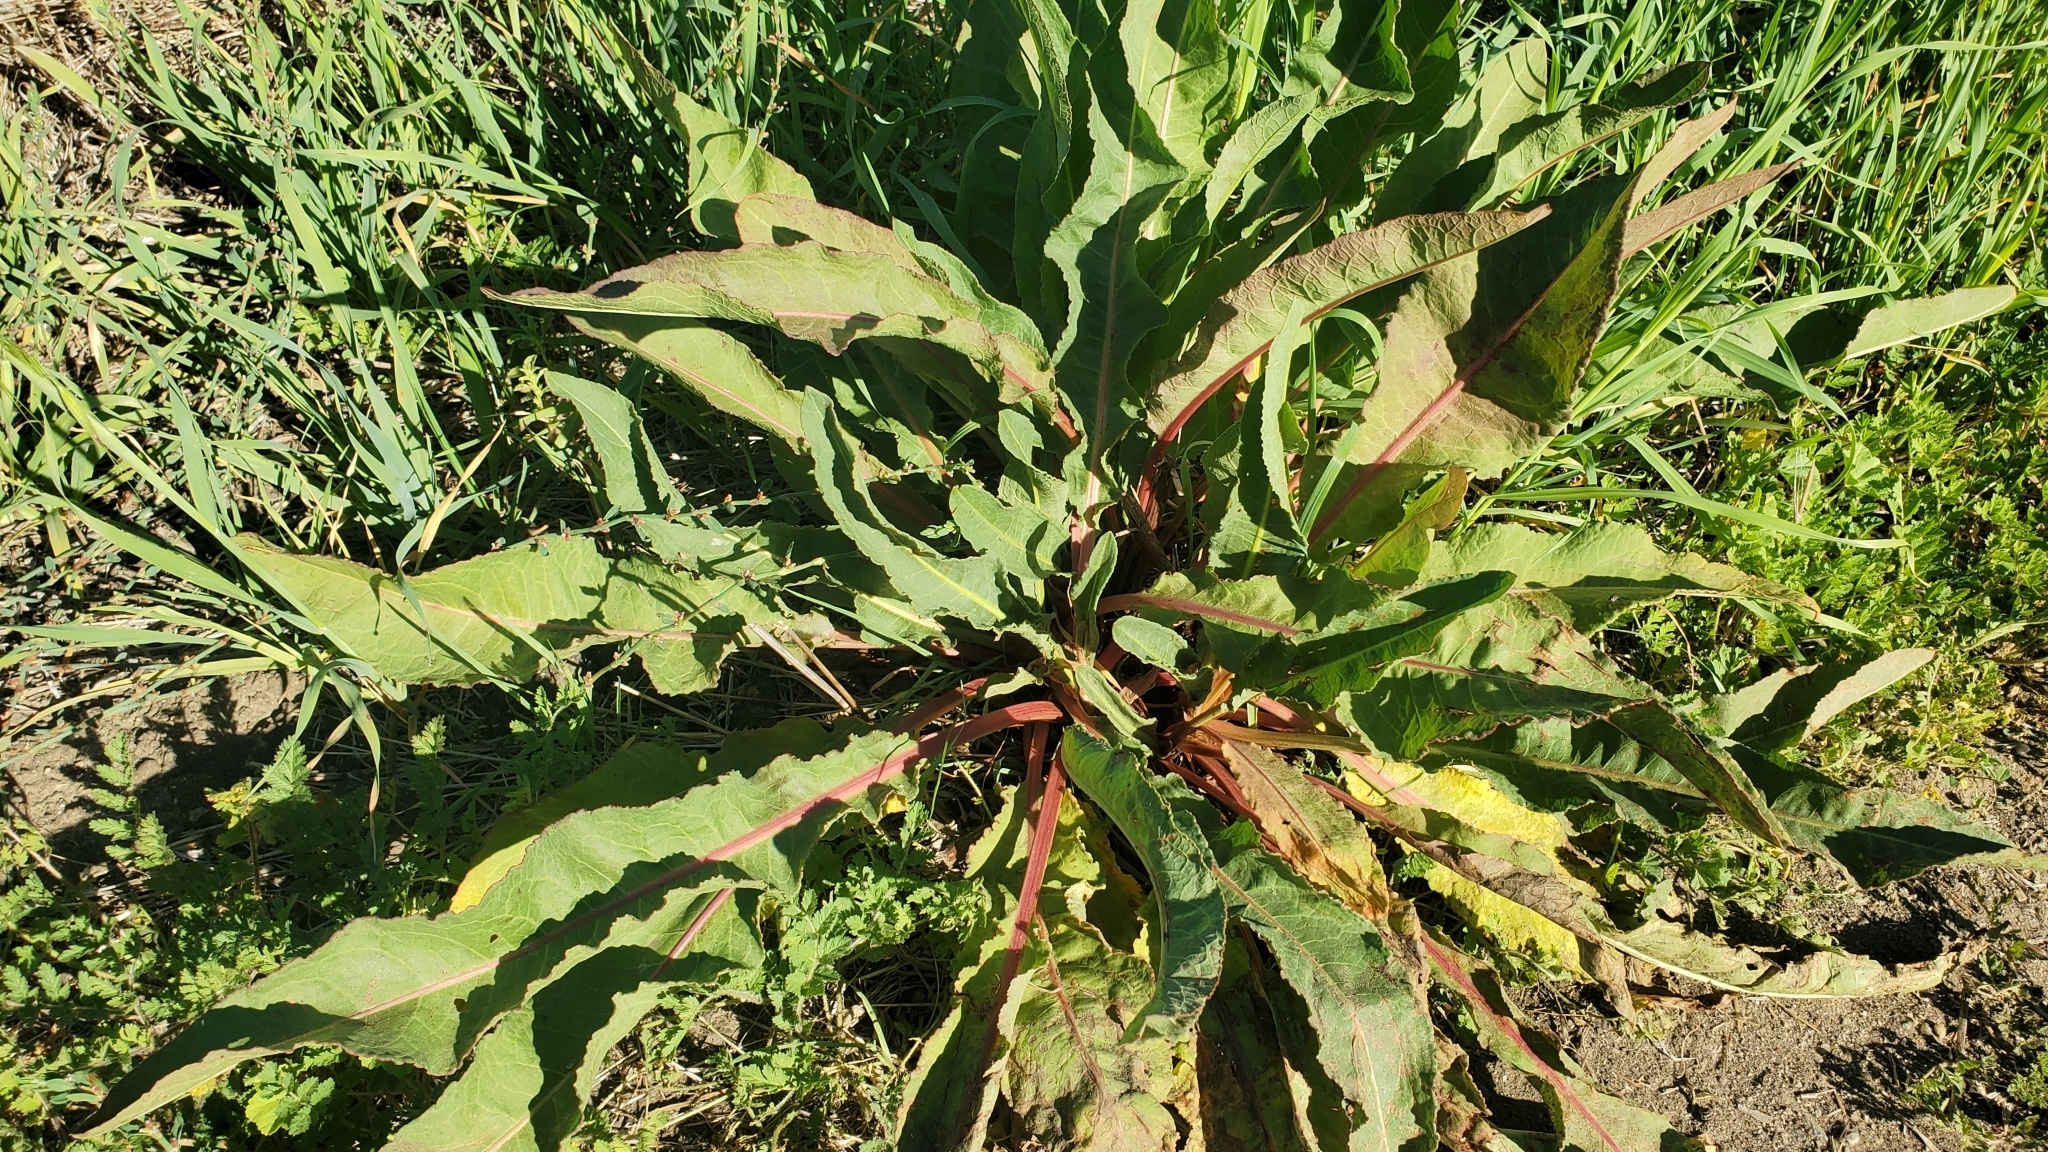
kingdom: Plantae
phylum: Tracheophyta
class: Magnoliopsida
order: Caryophyllales
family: Polygonaceae
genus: Rumex
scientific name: Rumex crispus
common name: Curled dock
